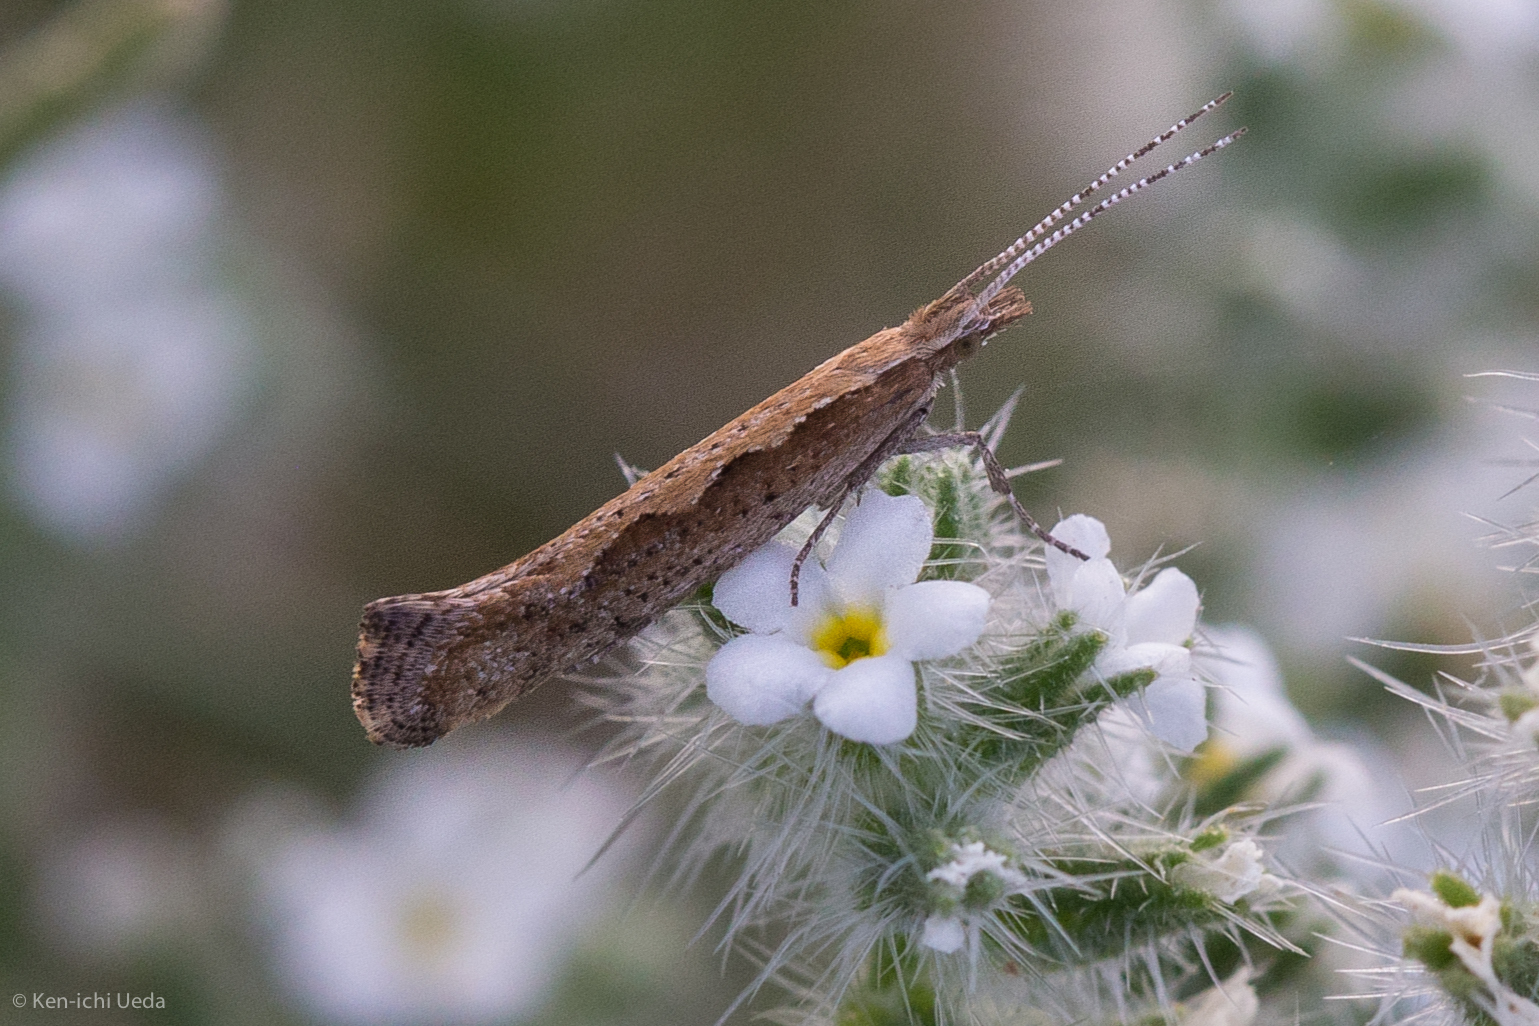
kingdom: Animalia
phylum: Arthropoda
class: Insecta
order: Lepidoptera
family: Plutellidae
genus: Plutella
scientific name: Plutella xylostella
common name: Diamond-back moth
